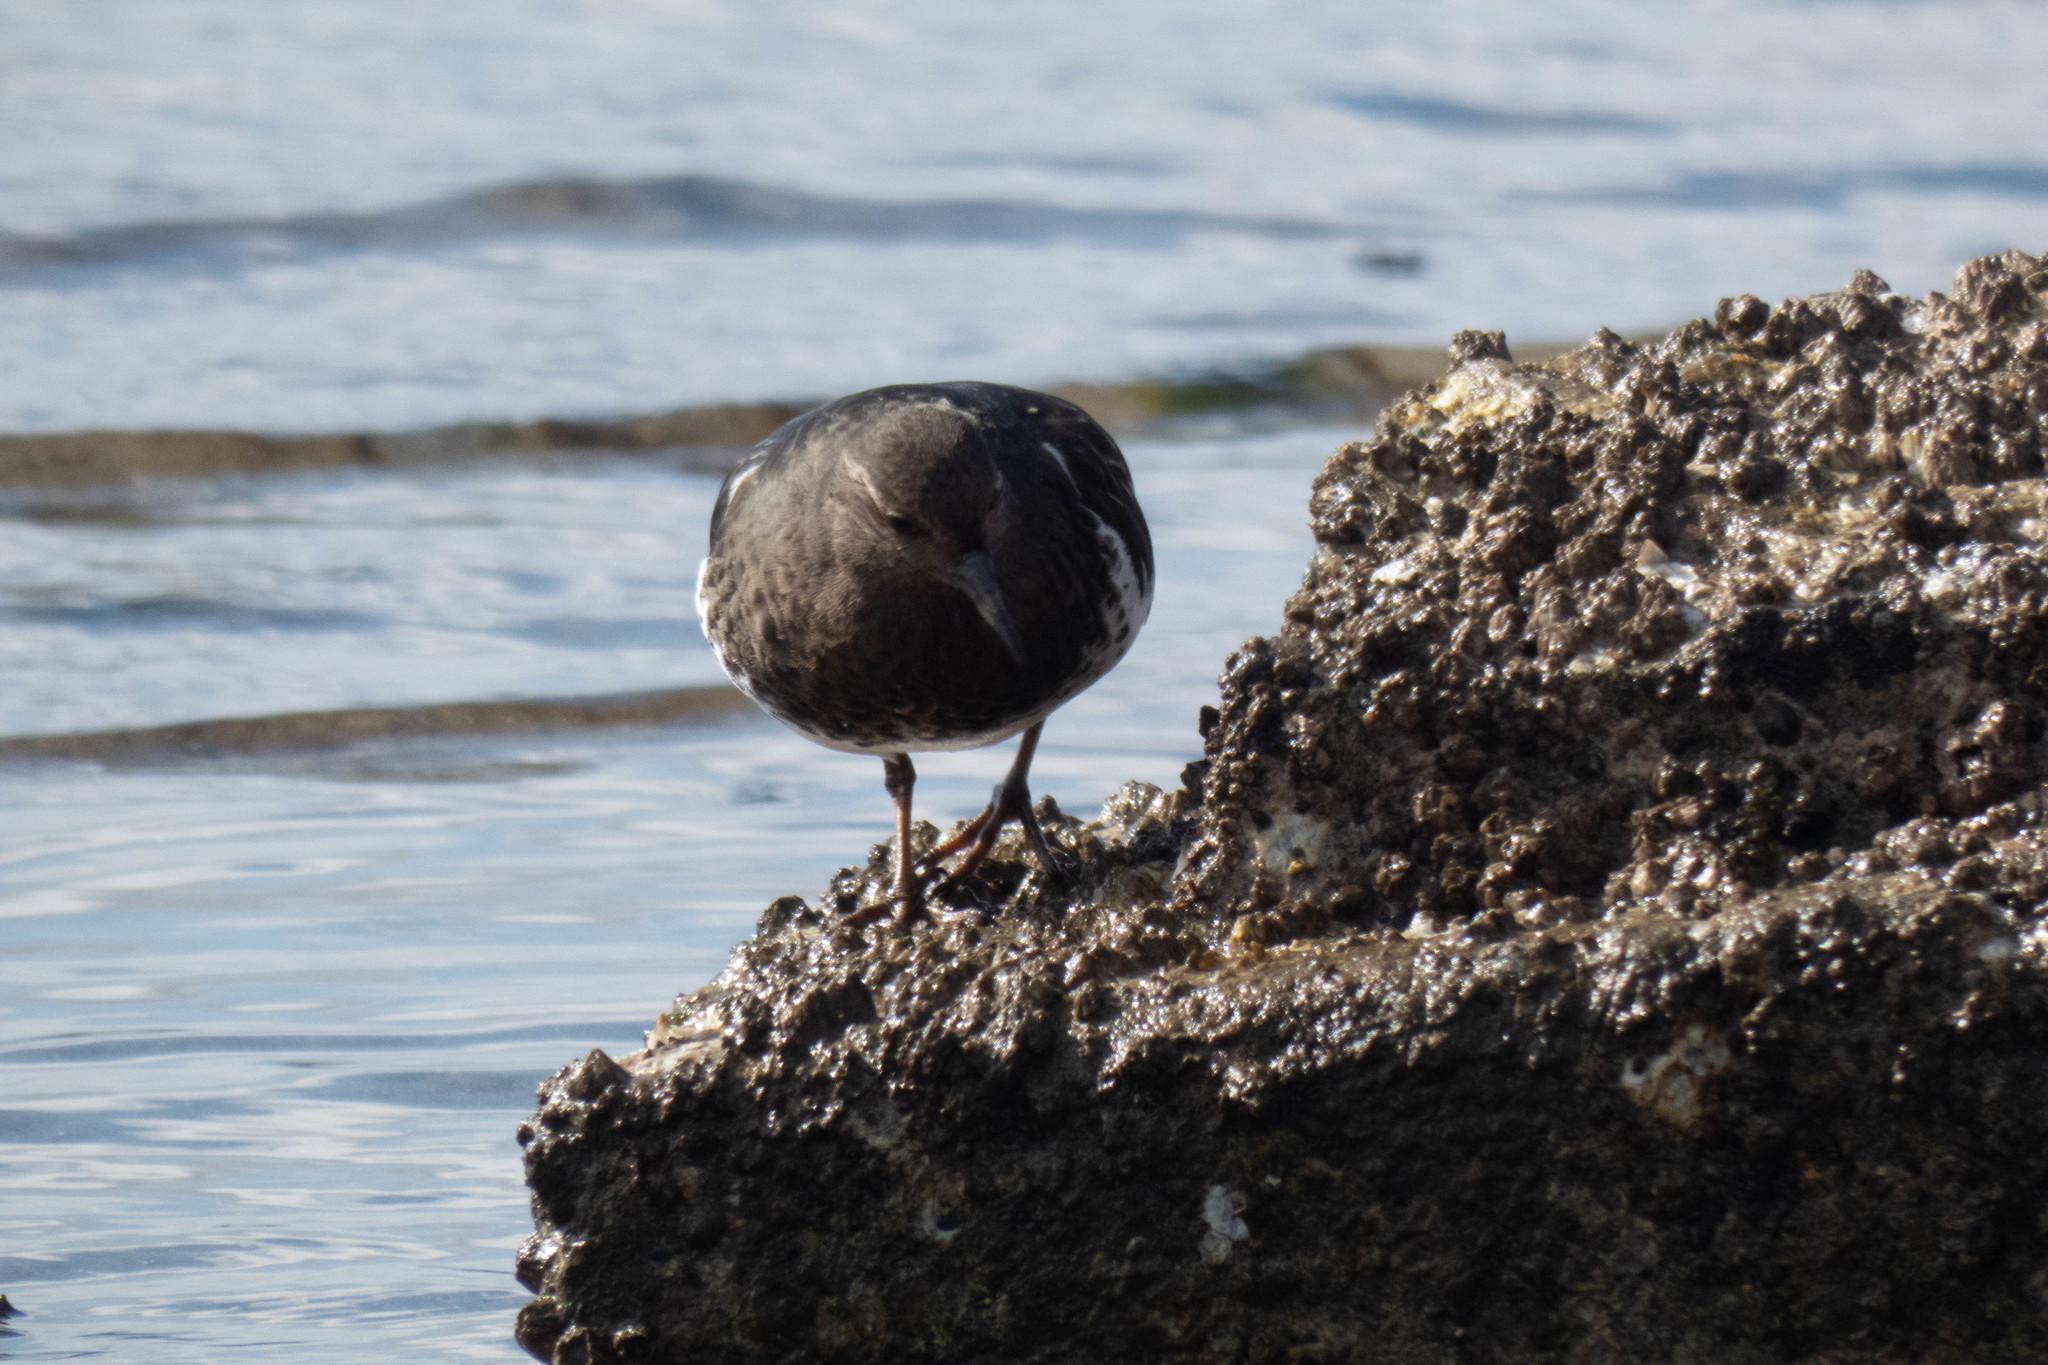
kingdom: Animalia
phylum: Chordata
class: Aves
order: Charadriiformes
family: Scolopacidae
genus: Arenaria
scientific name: Arenaria melanocephala
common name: Black turnstone
